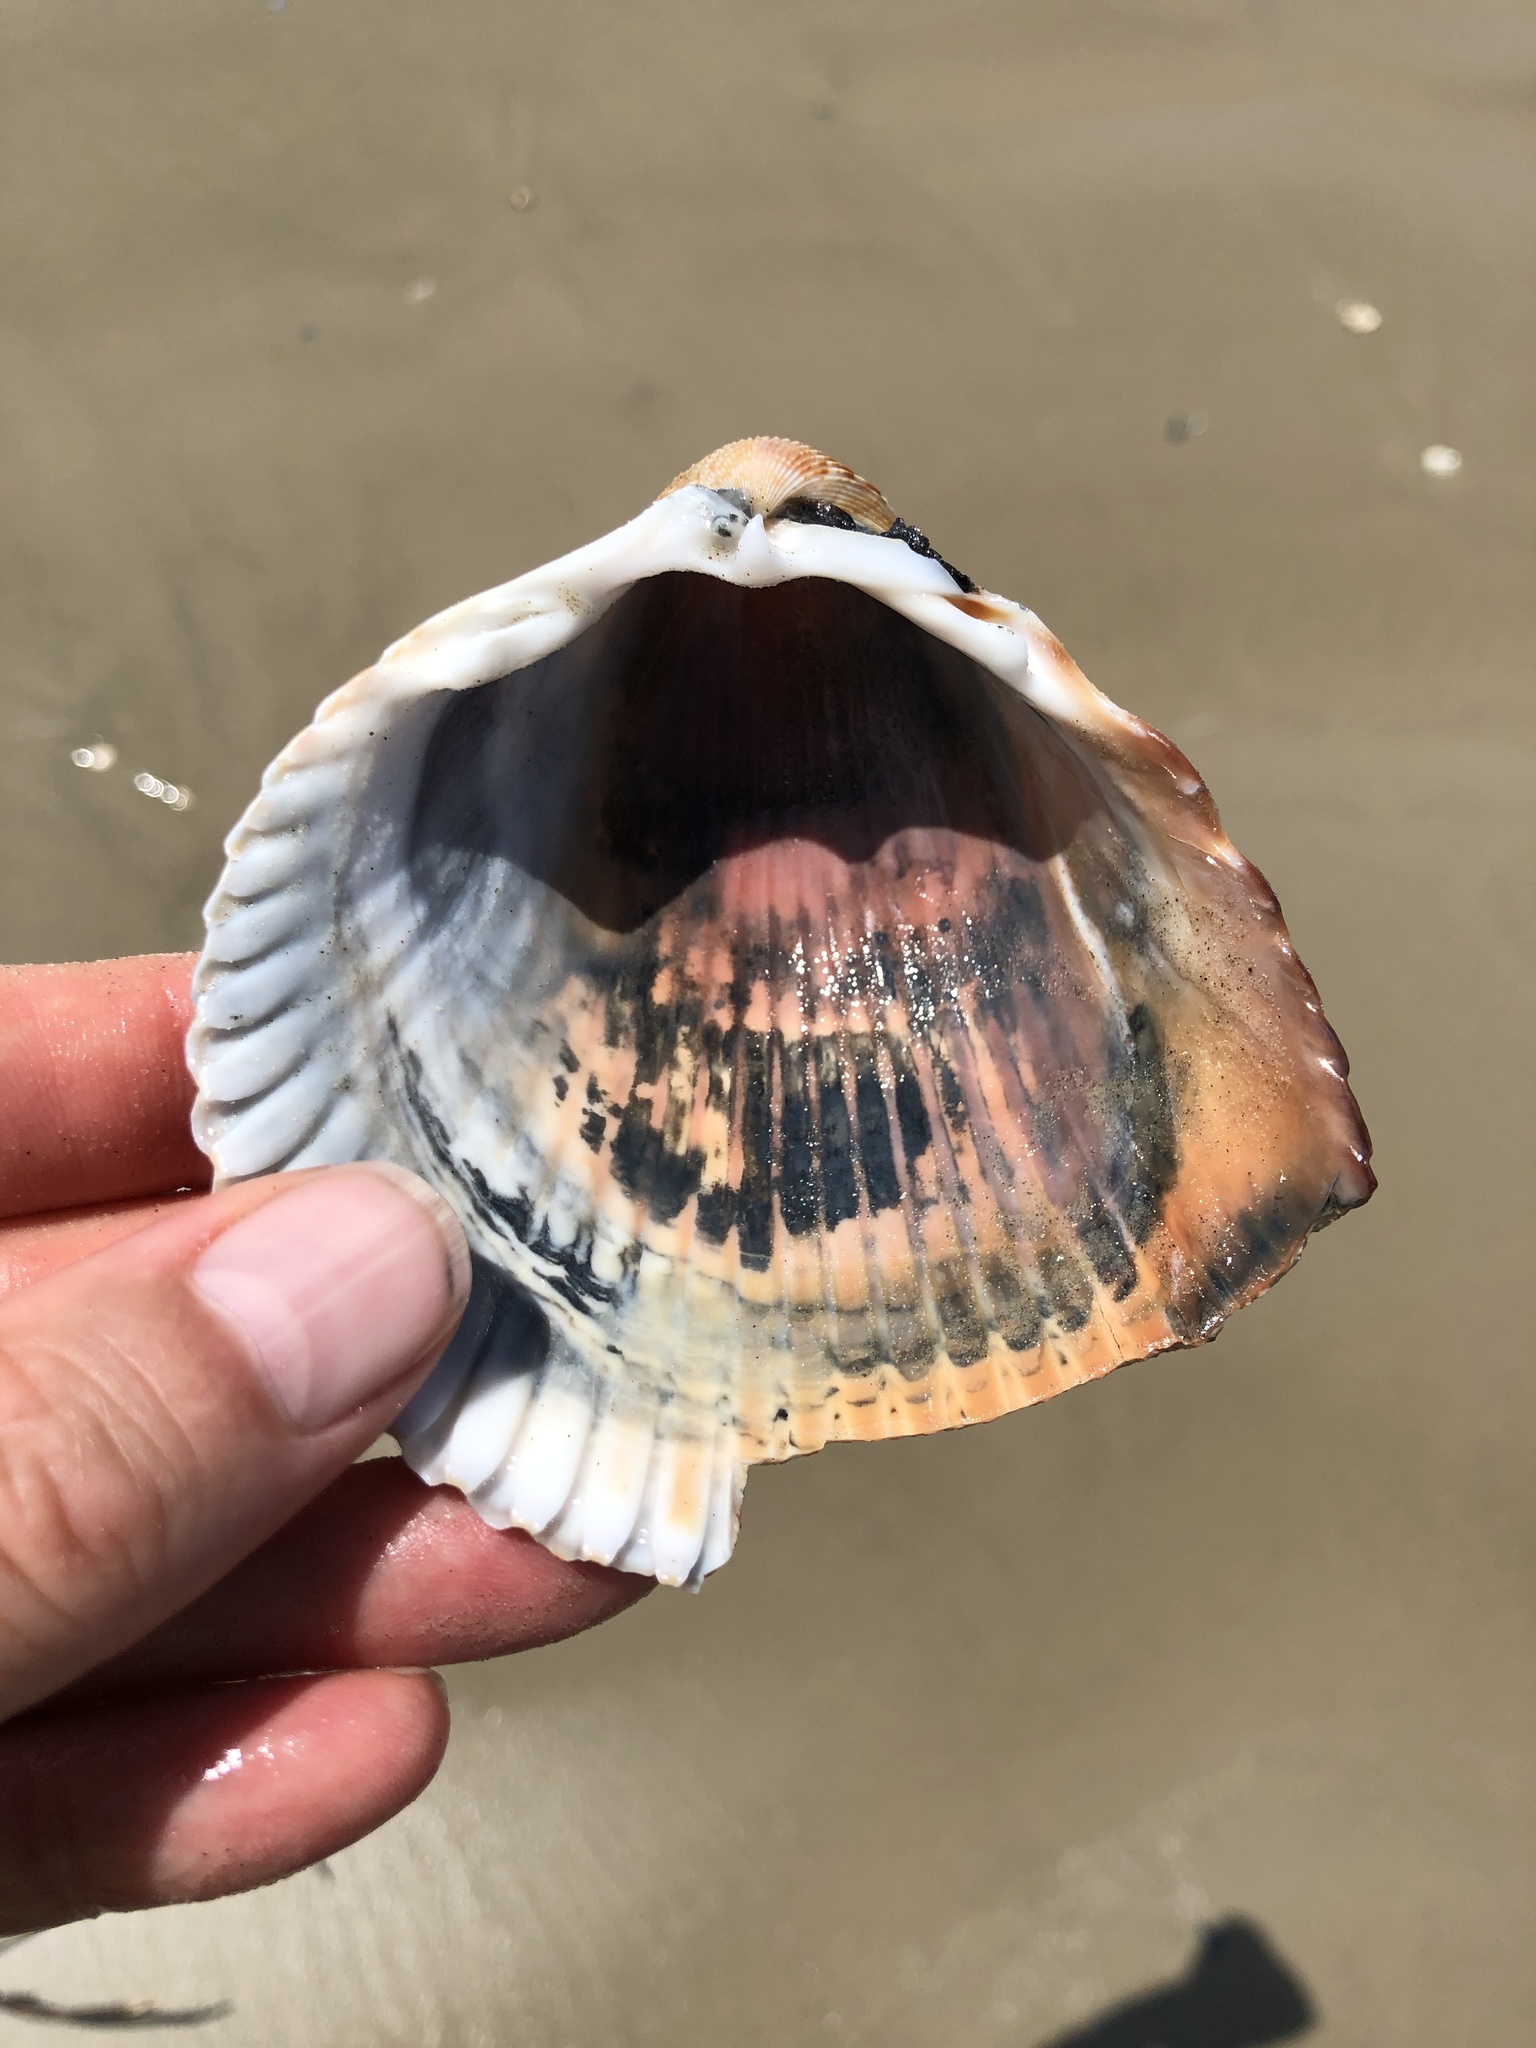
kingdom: Animalia
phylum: Mollusca
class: Bivalvia
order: Cardiida
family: Cardiidae
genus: Dinocardium
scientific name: Dinocardium robustum
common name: Atlantic giant cockle
